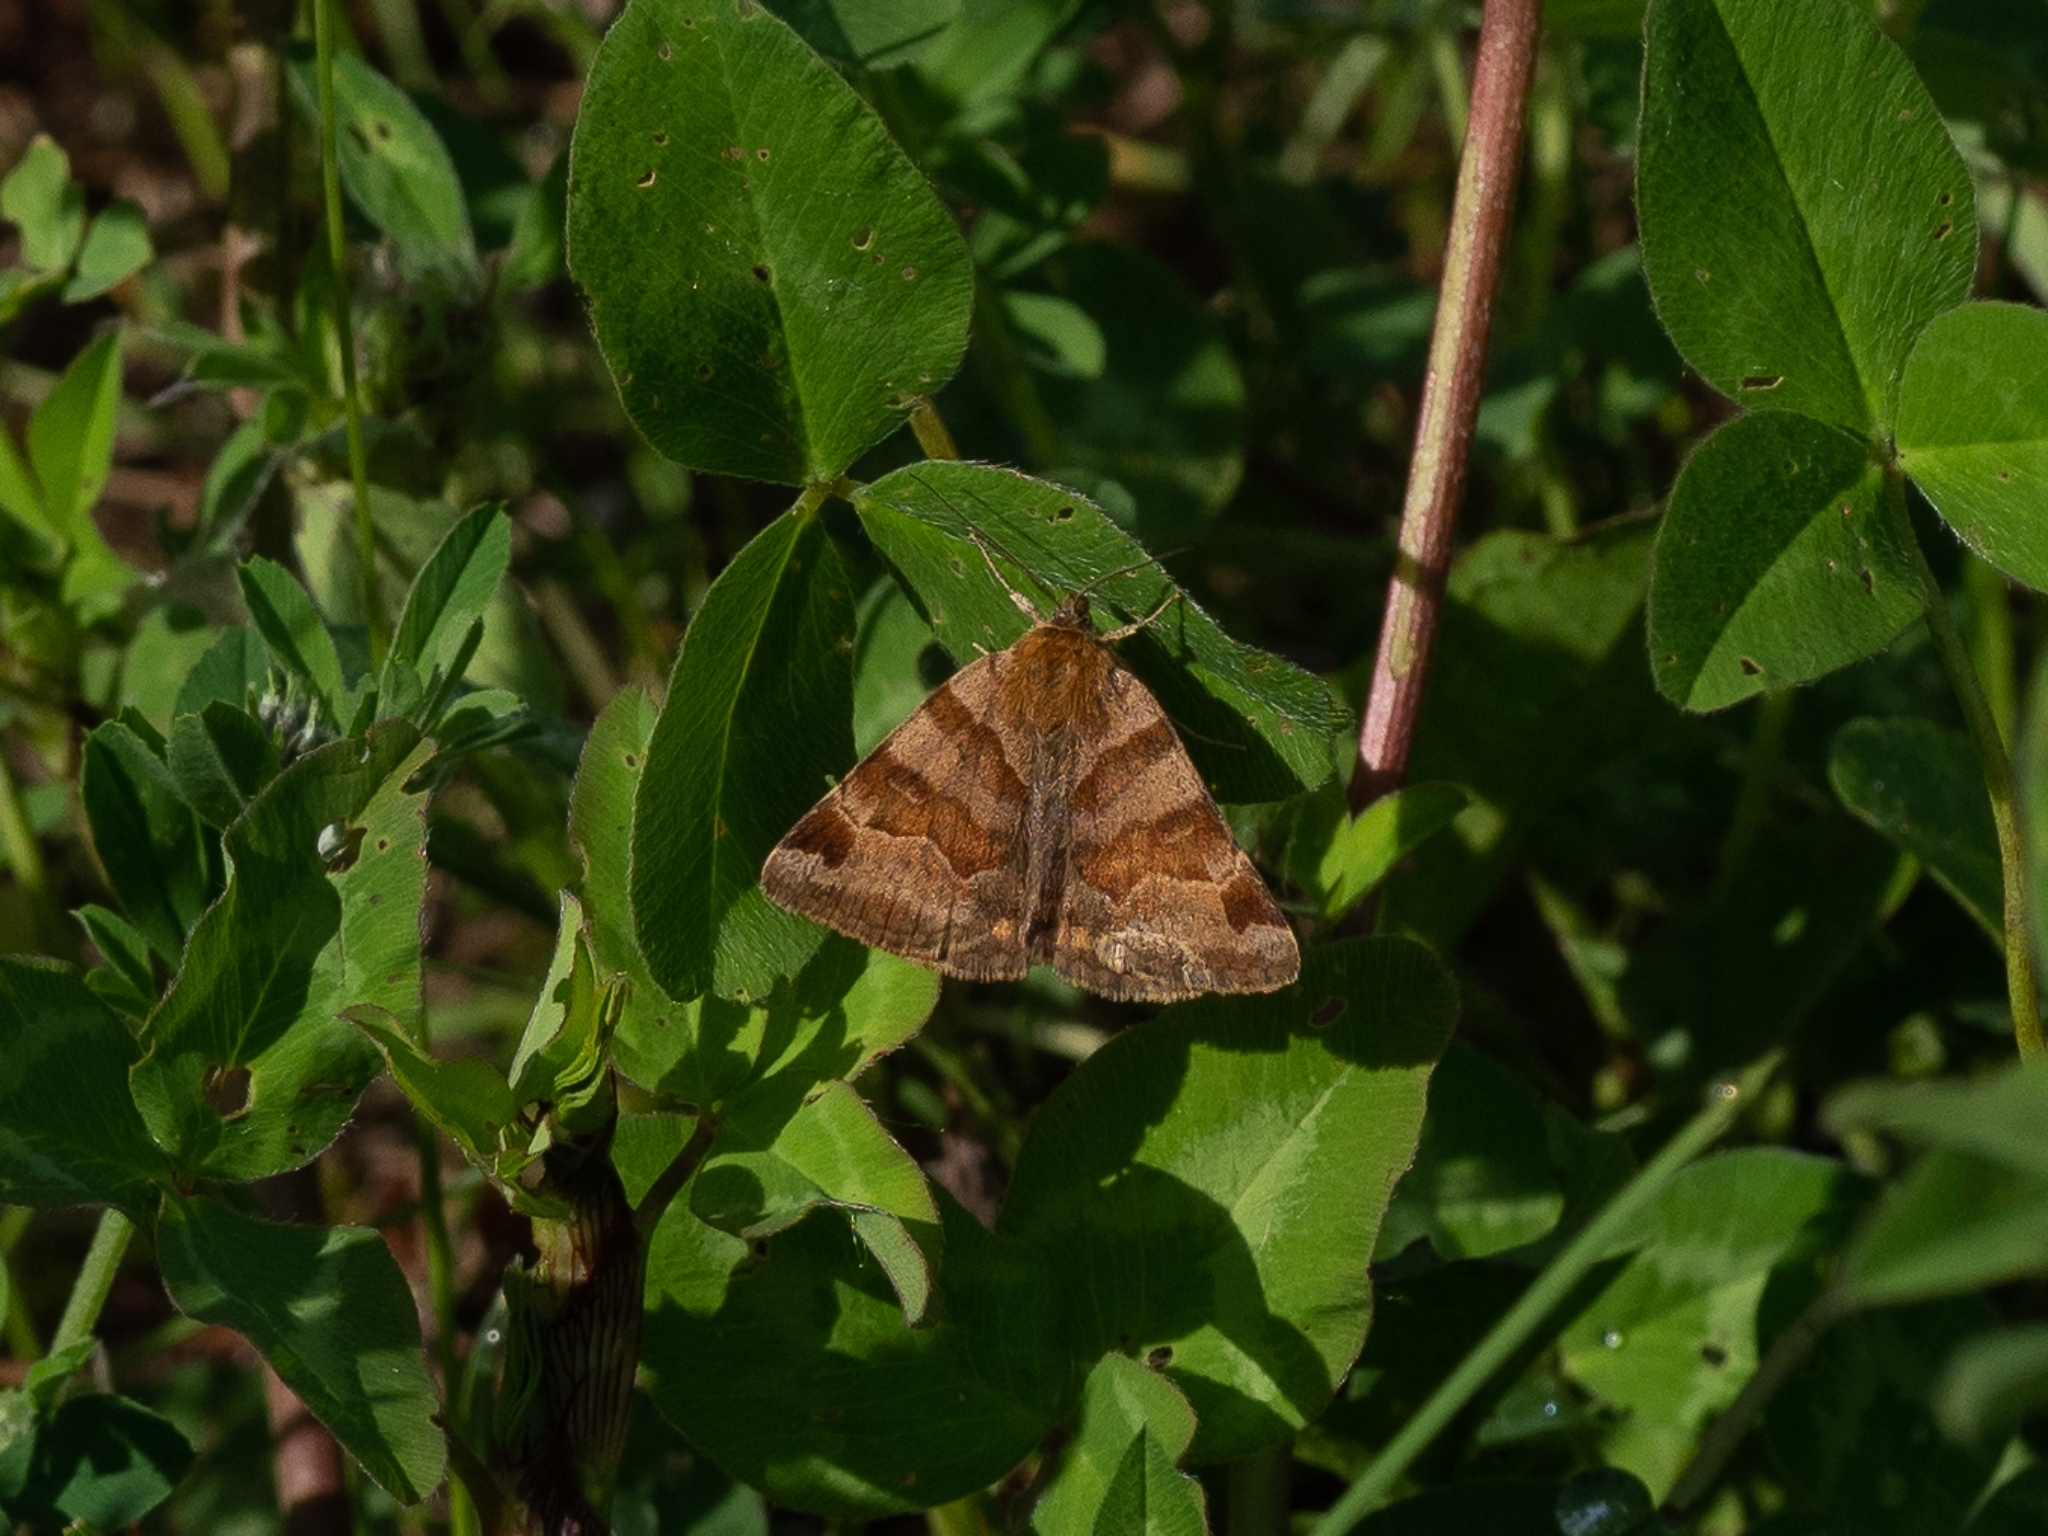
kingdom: Animalia
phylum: Arthropoda
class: Insecta
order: Lepidoptera
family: Erebidae
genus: Euclidia
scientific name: Euclidia glyphica
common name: Burnet companion
